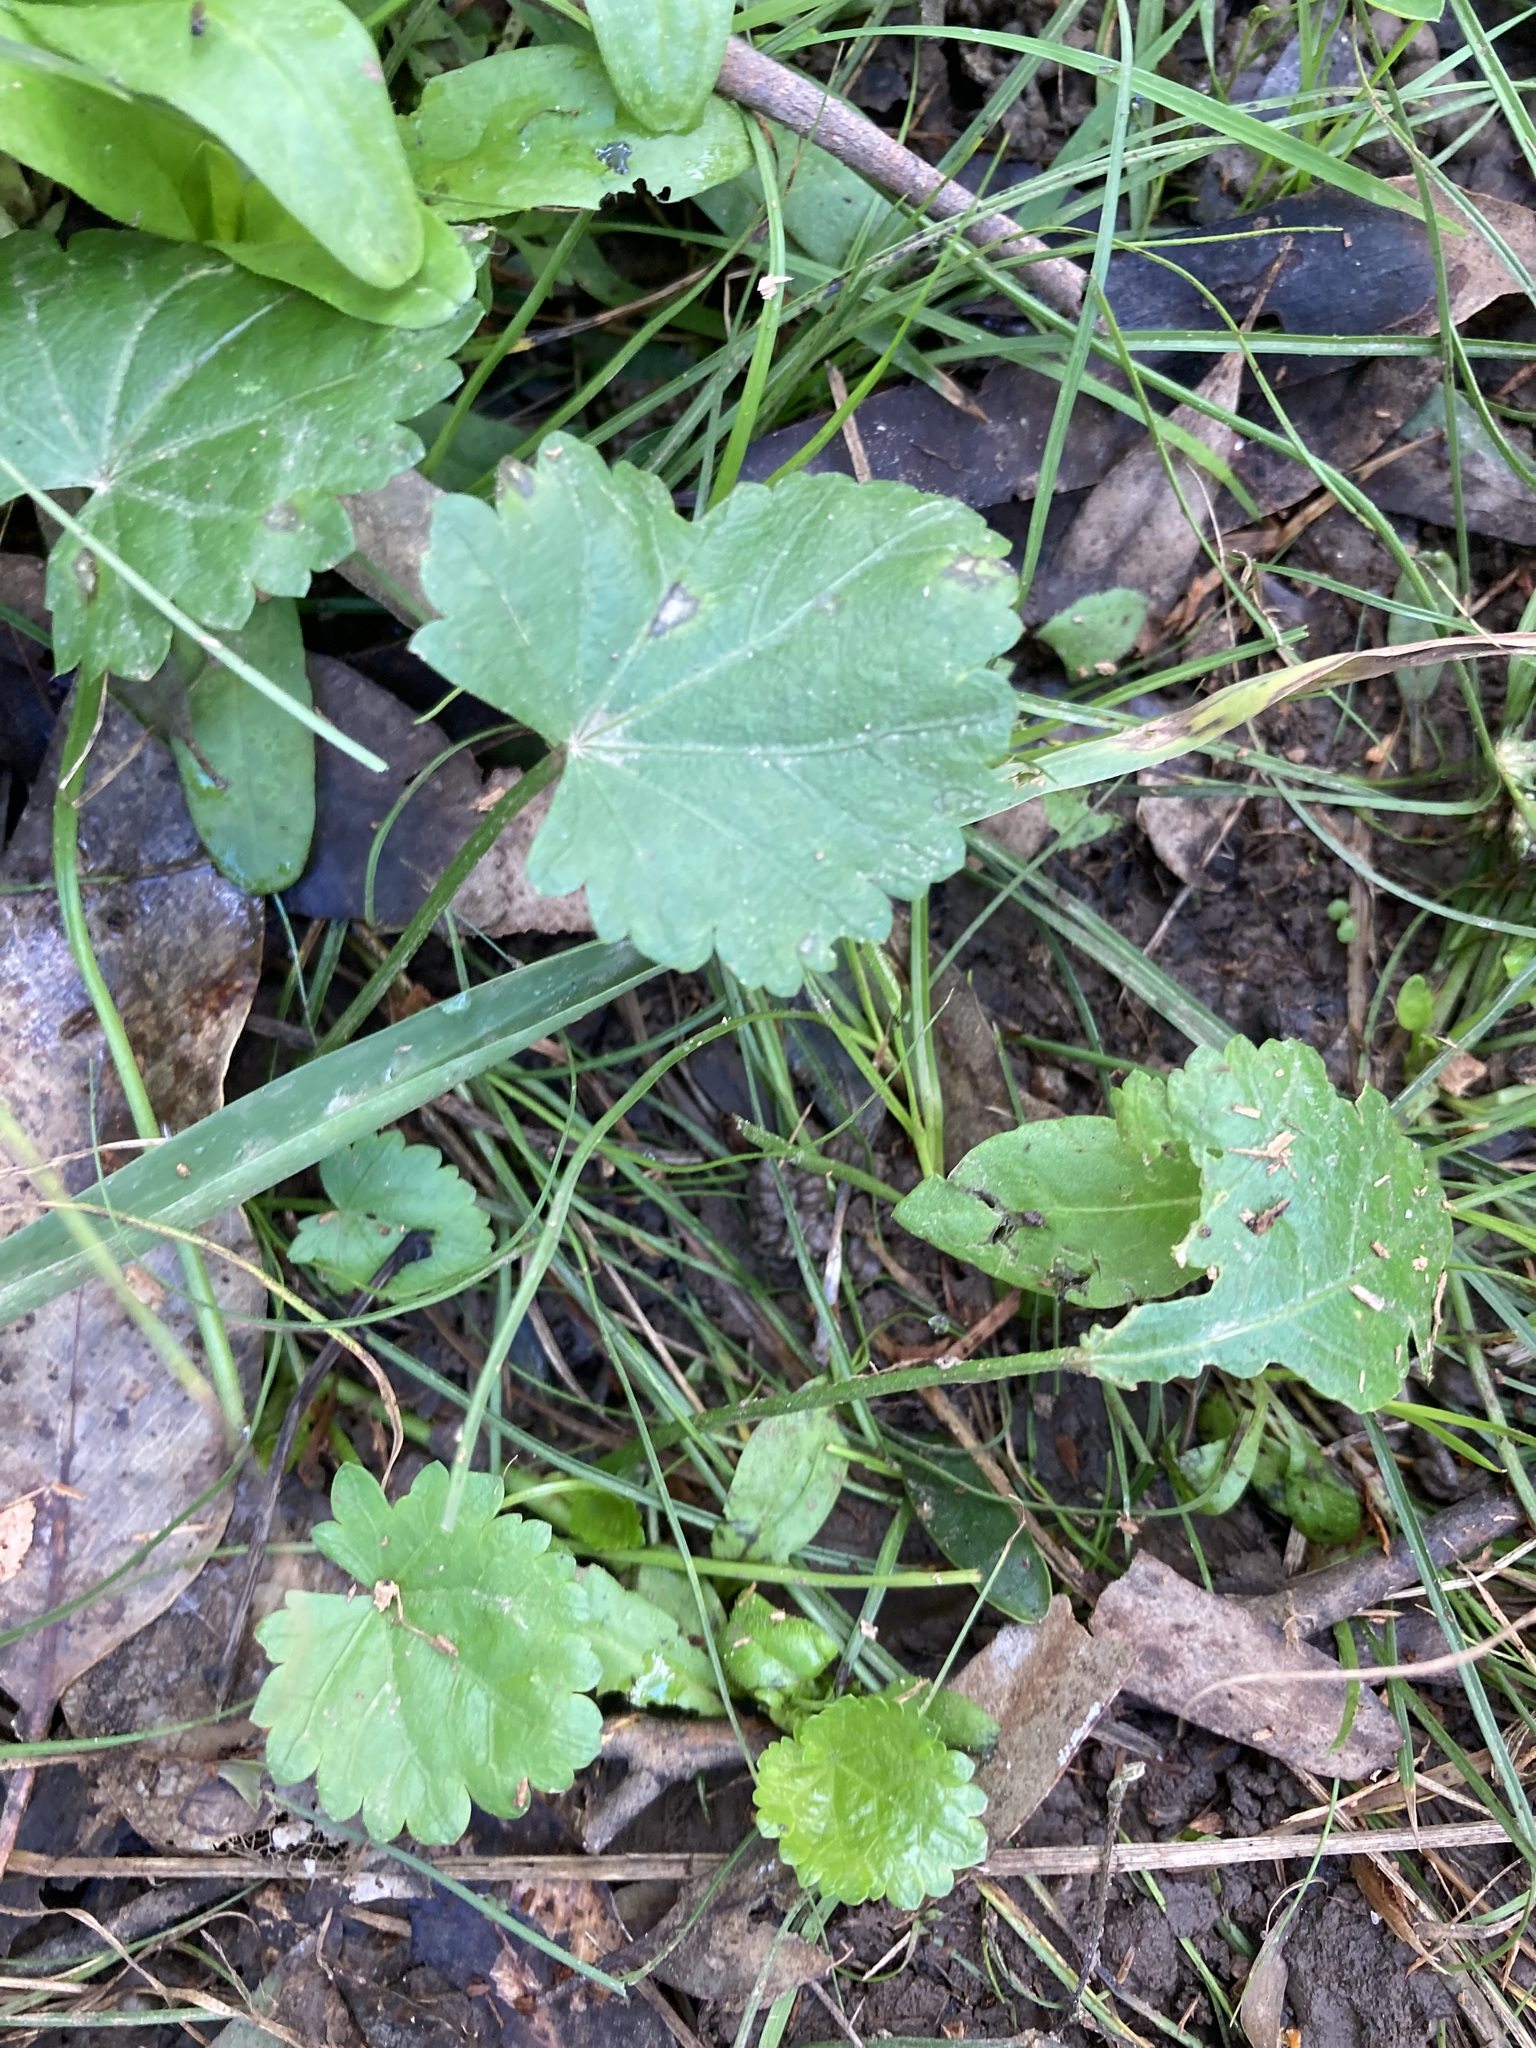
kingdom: Plantae
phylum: Tracheophyta
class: Magnoliopsida
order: Malvales
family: Malvaceae
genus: Modiola
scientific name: Modiola caroliniana
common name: Carolina bristlemallow
